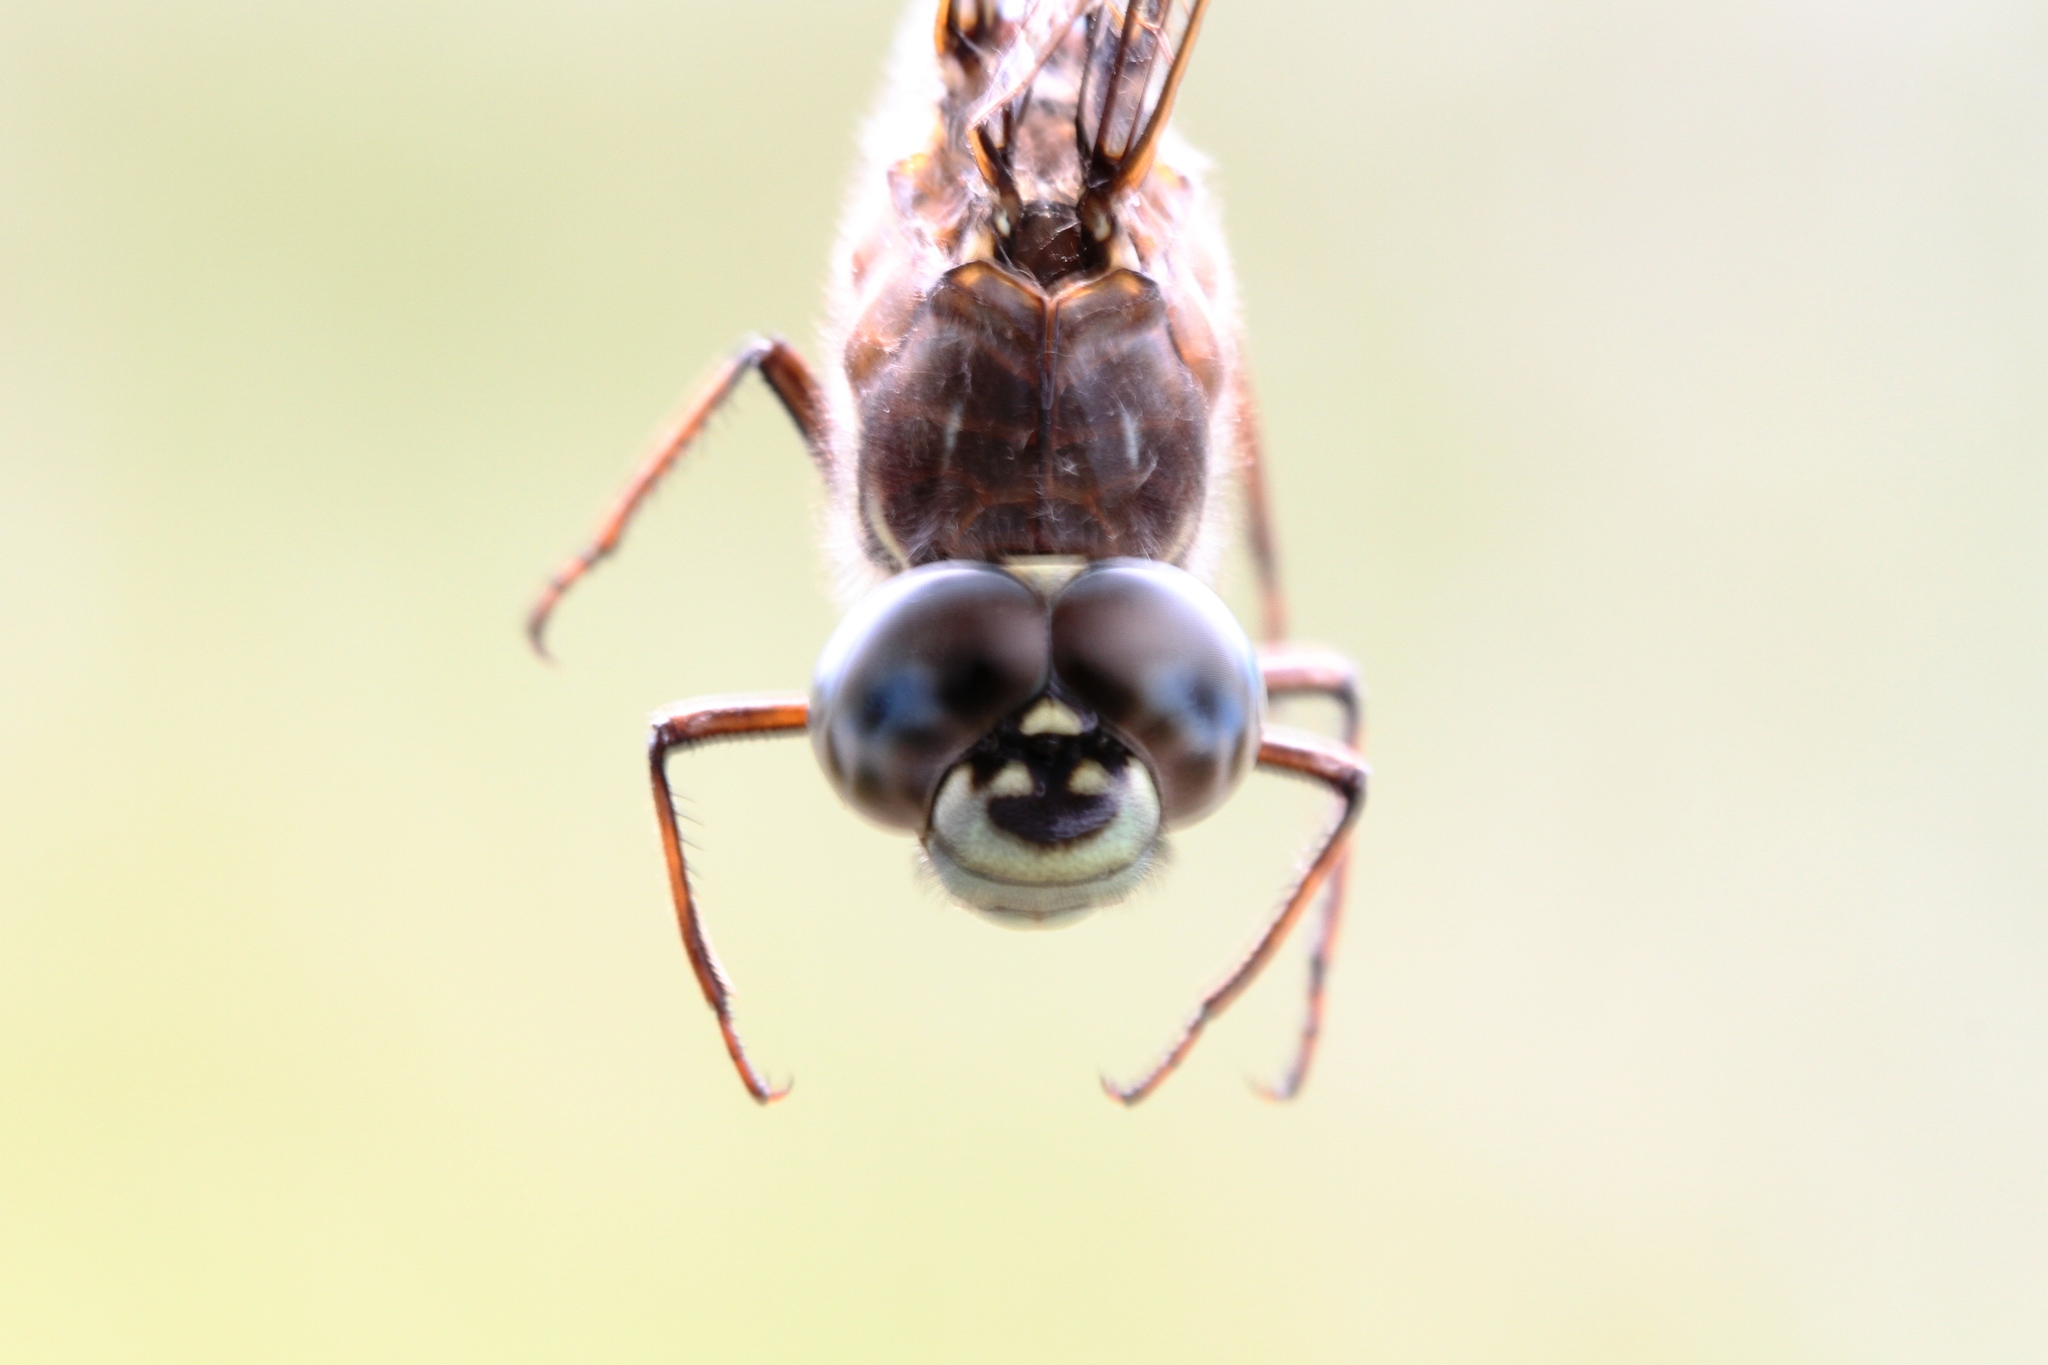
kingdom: Animalia
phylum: Arthropoda
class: Insecta
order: Odonata
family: Aeshnidae
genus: Aeshna
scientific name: Aeshna sitchensis
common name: Zigzag darner
